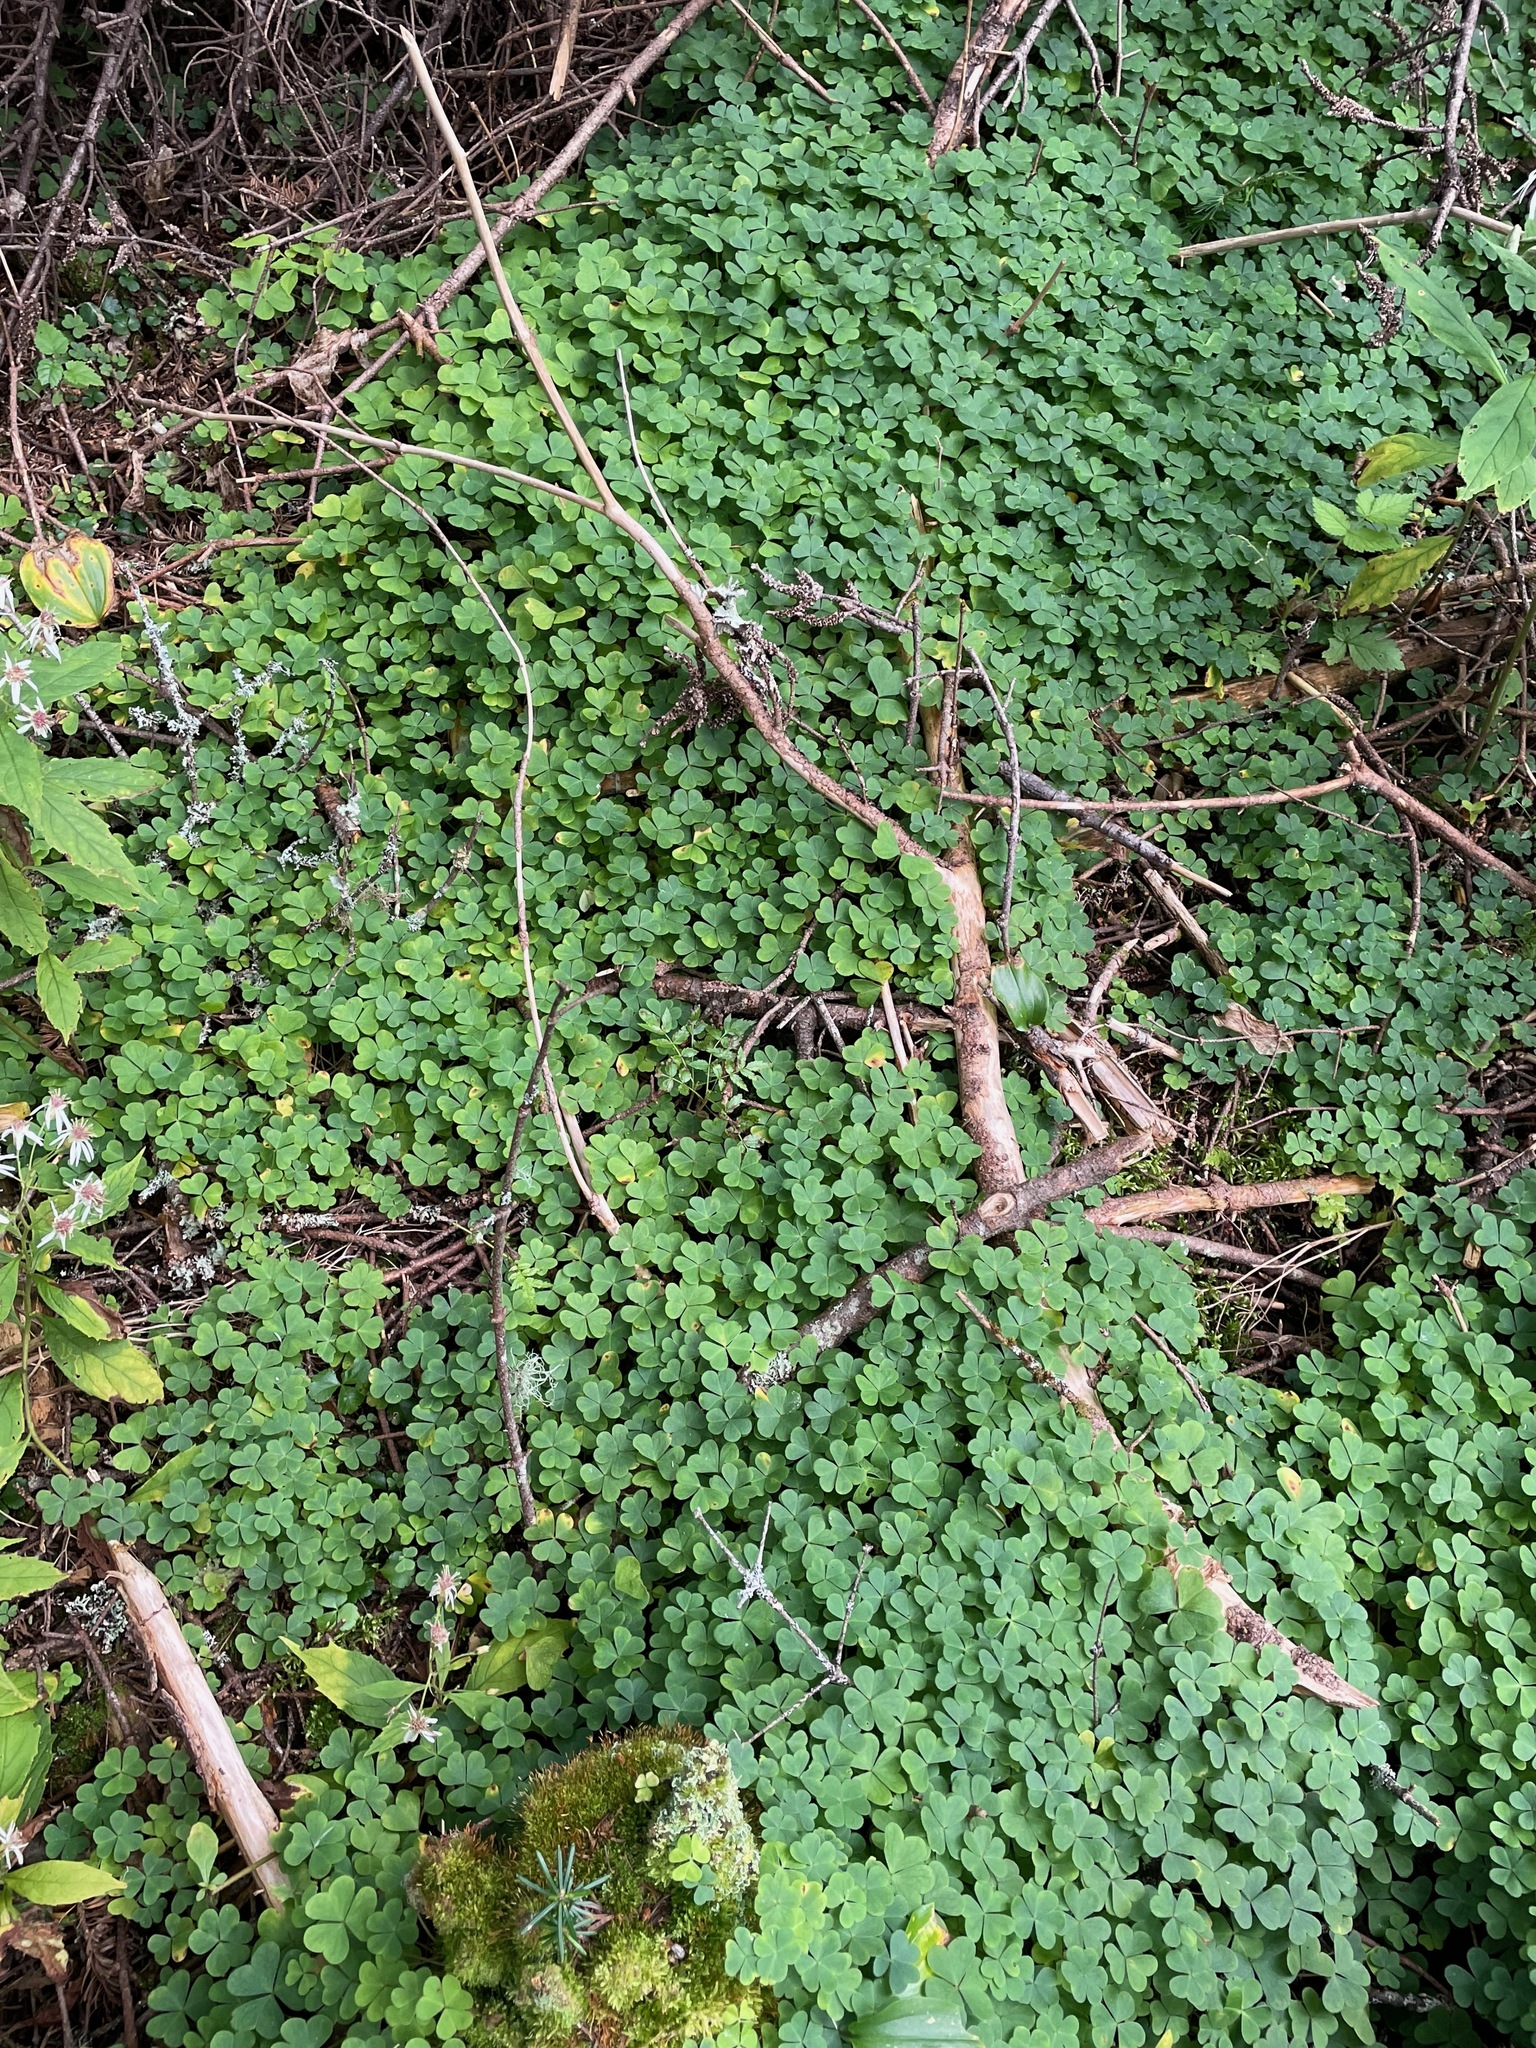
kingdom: Plantae
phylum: Tracheophyta
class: Magnoliopsida
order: Oxalidales
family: Oxalidaceae
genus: Oxalis
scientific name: Oxalis montana
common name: American wood-sorrel
